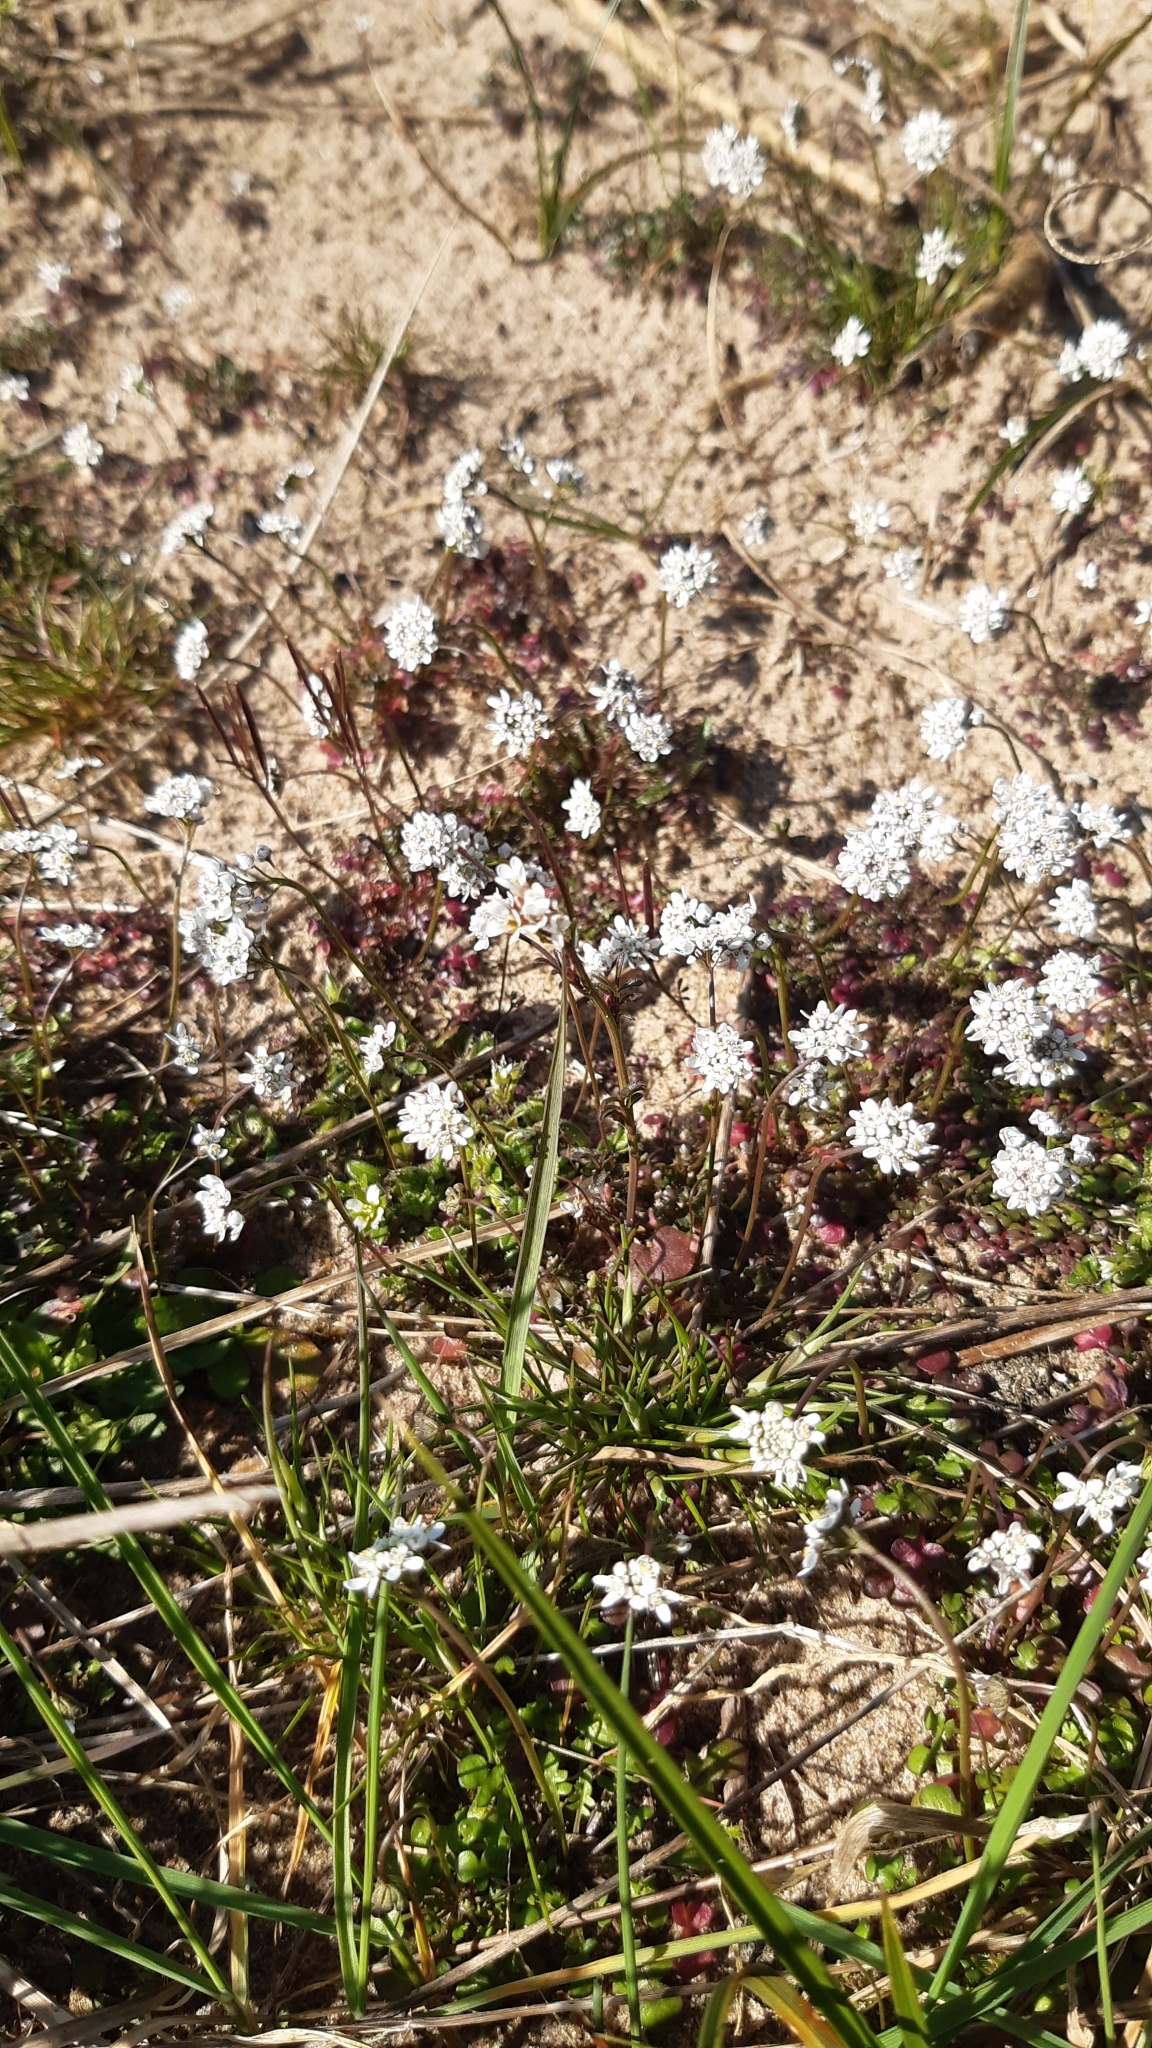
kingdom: Plantae
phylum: Tracheophyta
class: Magnoliopsida
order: Brassicales
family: Brassicaceae
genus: Teesdalia
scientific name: Teesdalia nudicaulis
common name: Shepherd's cress
